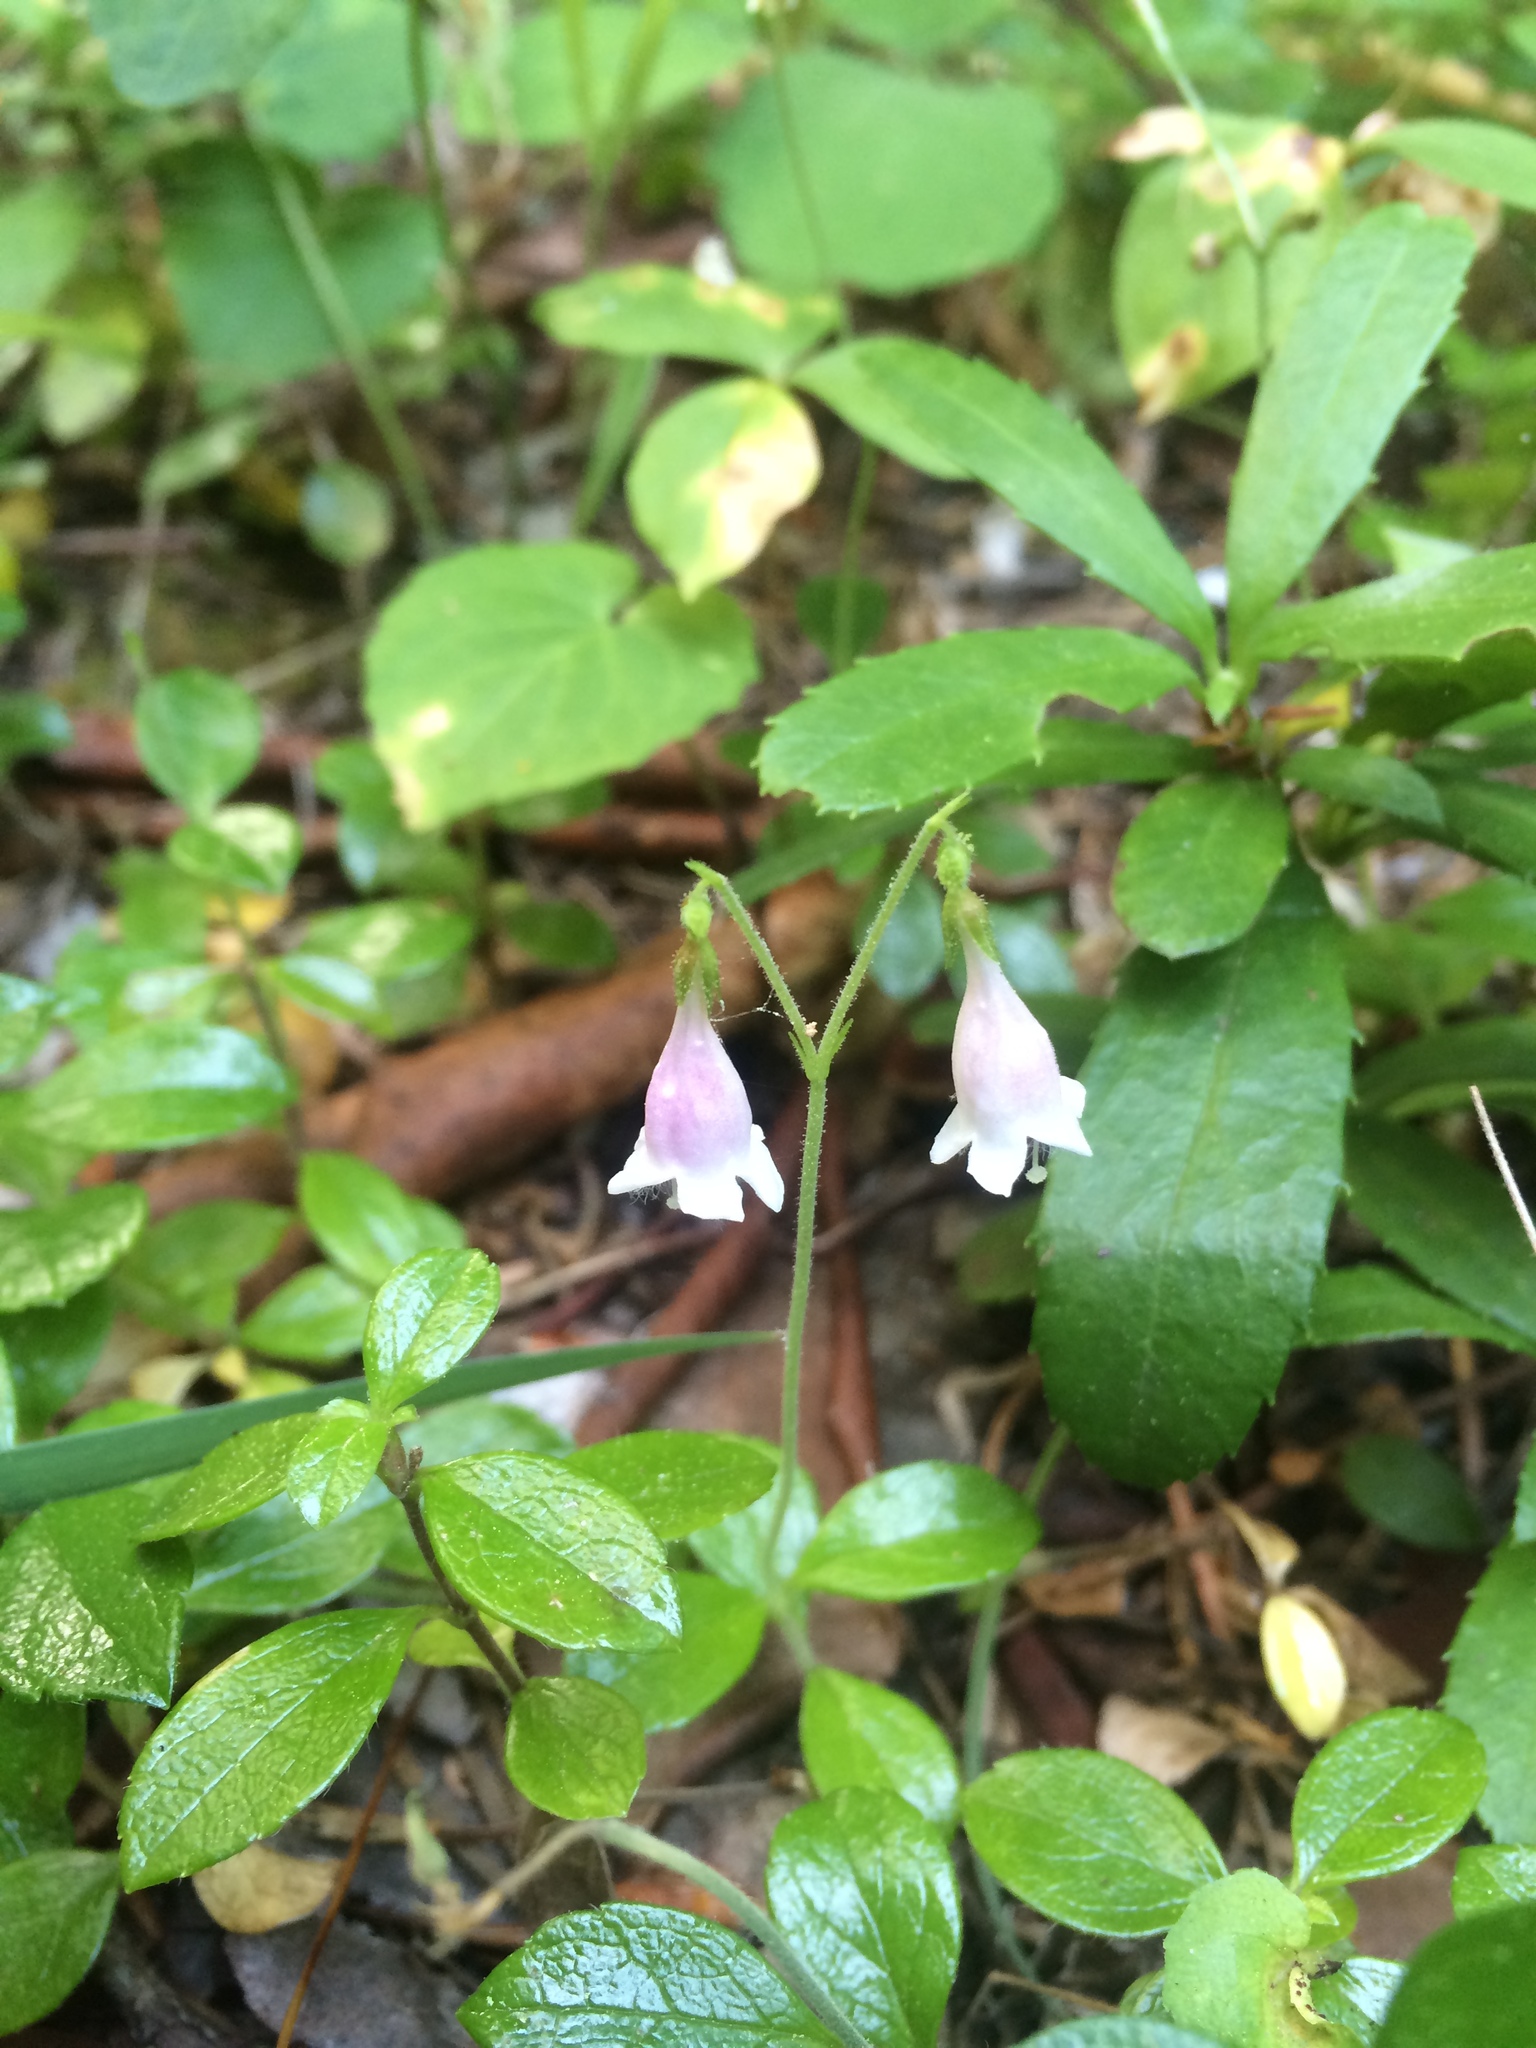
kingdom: Plantae
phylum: Tracheophyta
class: Magnoliopsida
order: Dipsacales
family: Caprifoliaceae
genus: Linnaea
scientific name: Linnaea borealis
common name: Twinflower
